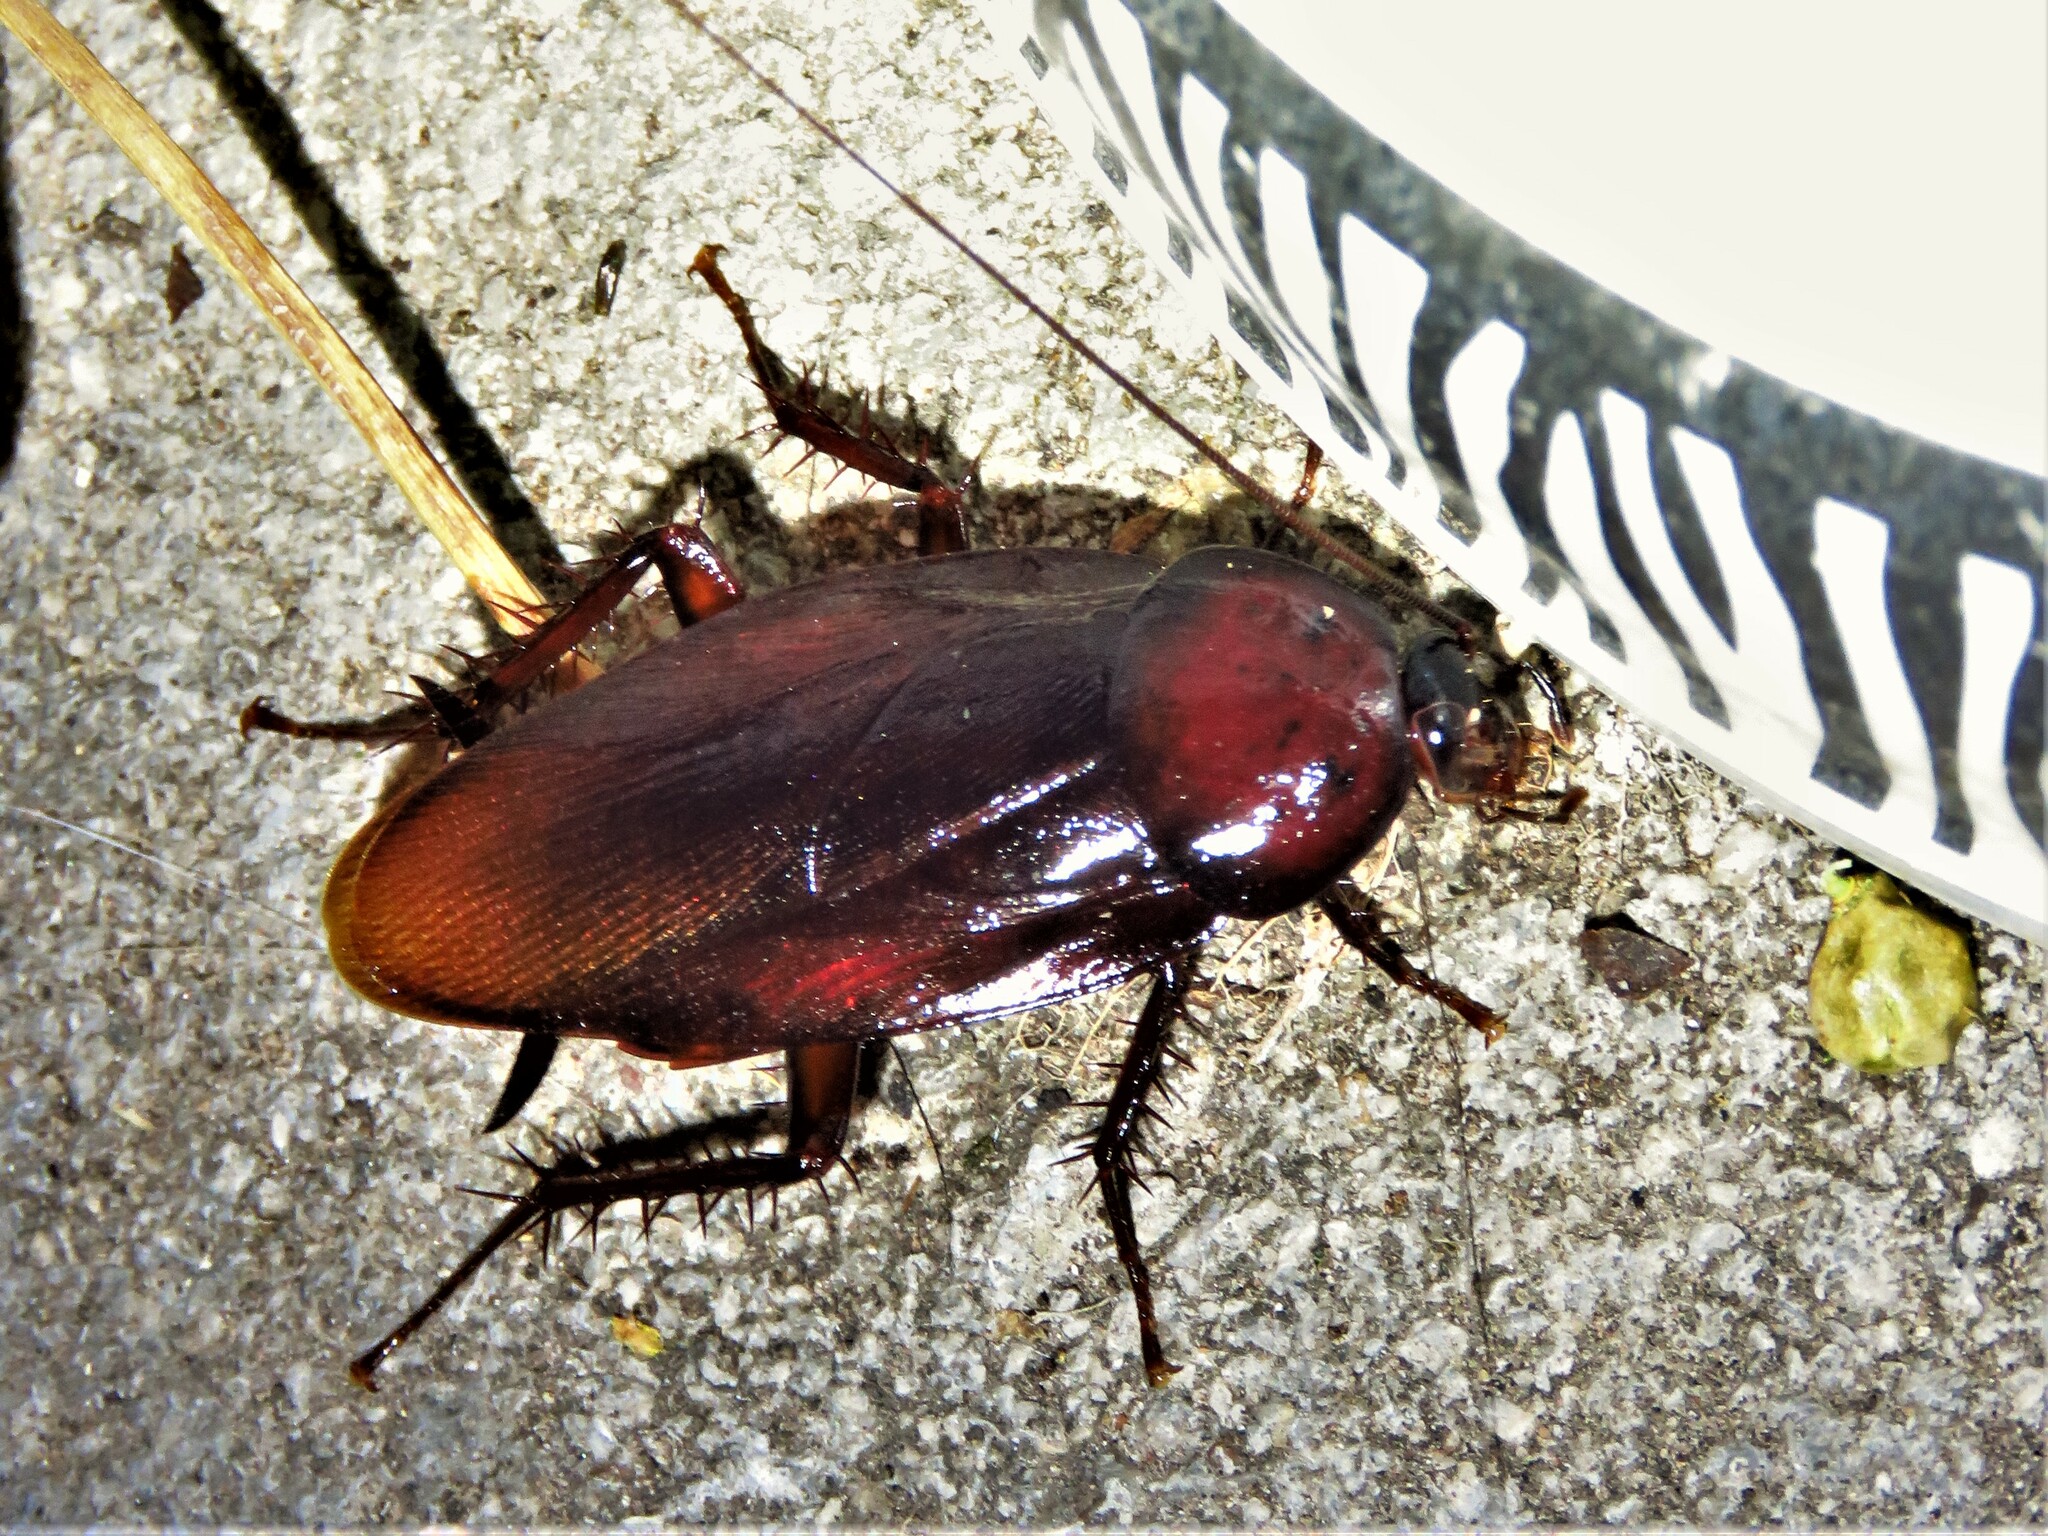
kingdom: Animalia
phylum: Arthropoda
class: Insecta
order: Blattodea
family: Blattidae
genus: Periplaneta
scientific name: Periplaneta fuliginosa
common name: Smokeybrown cockroad
